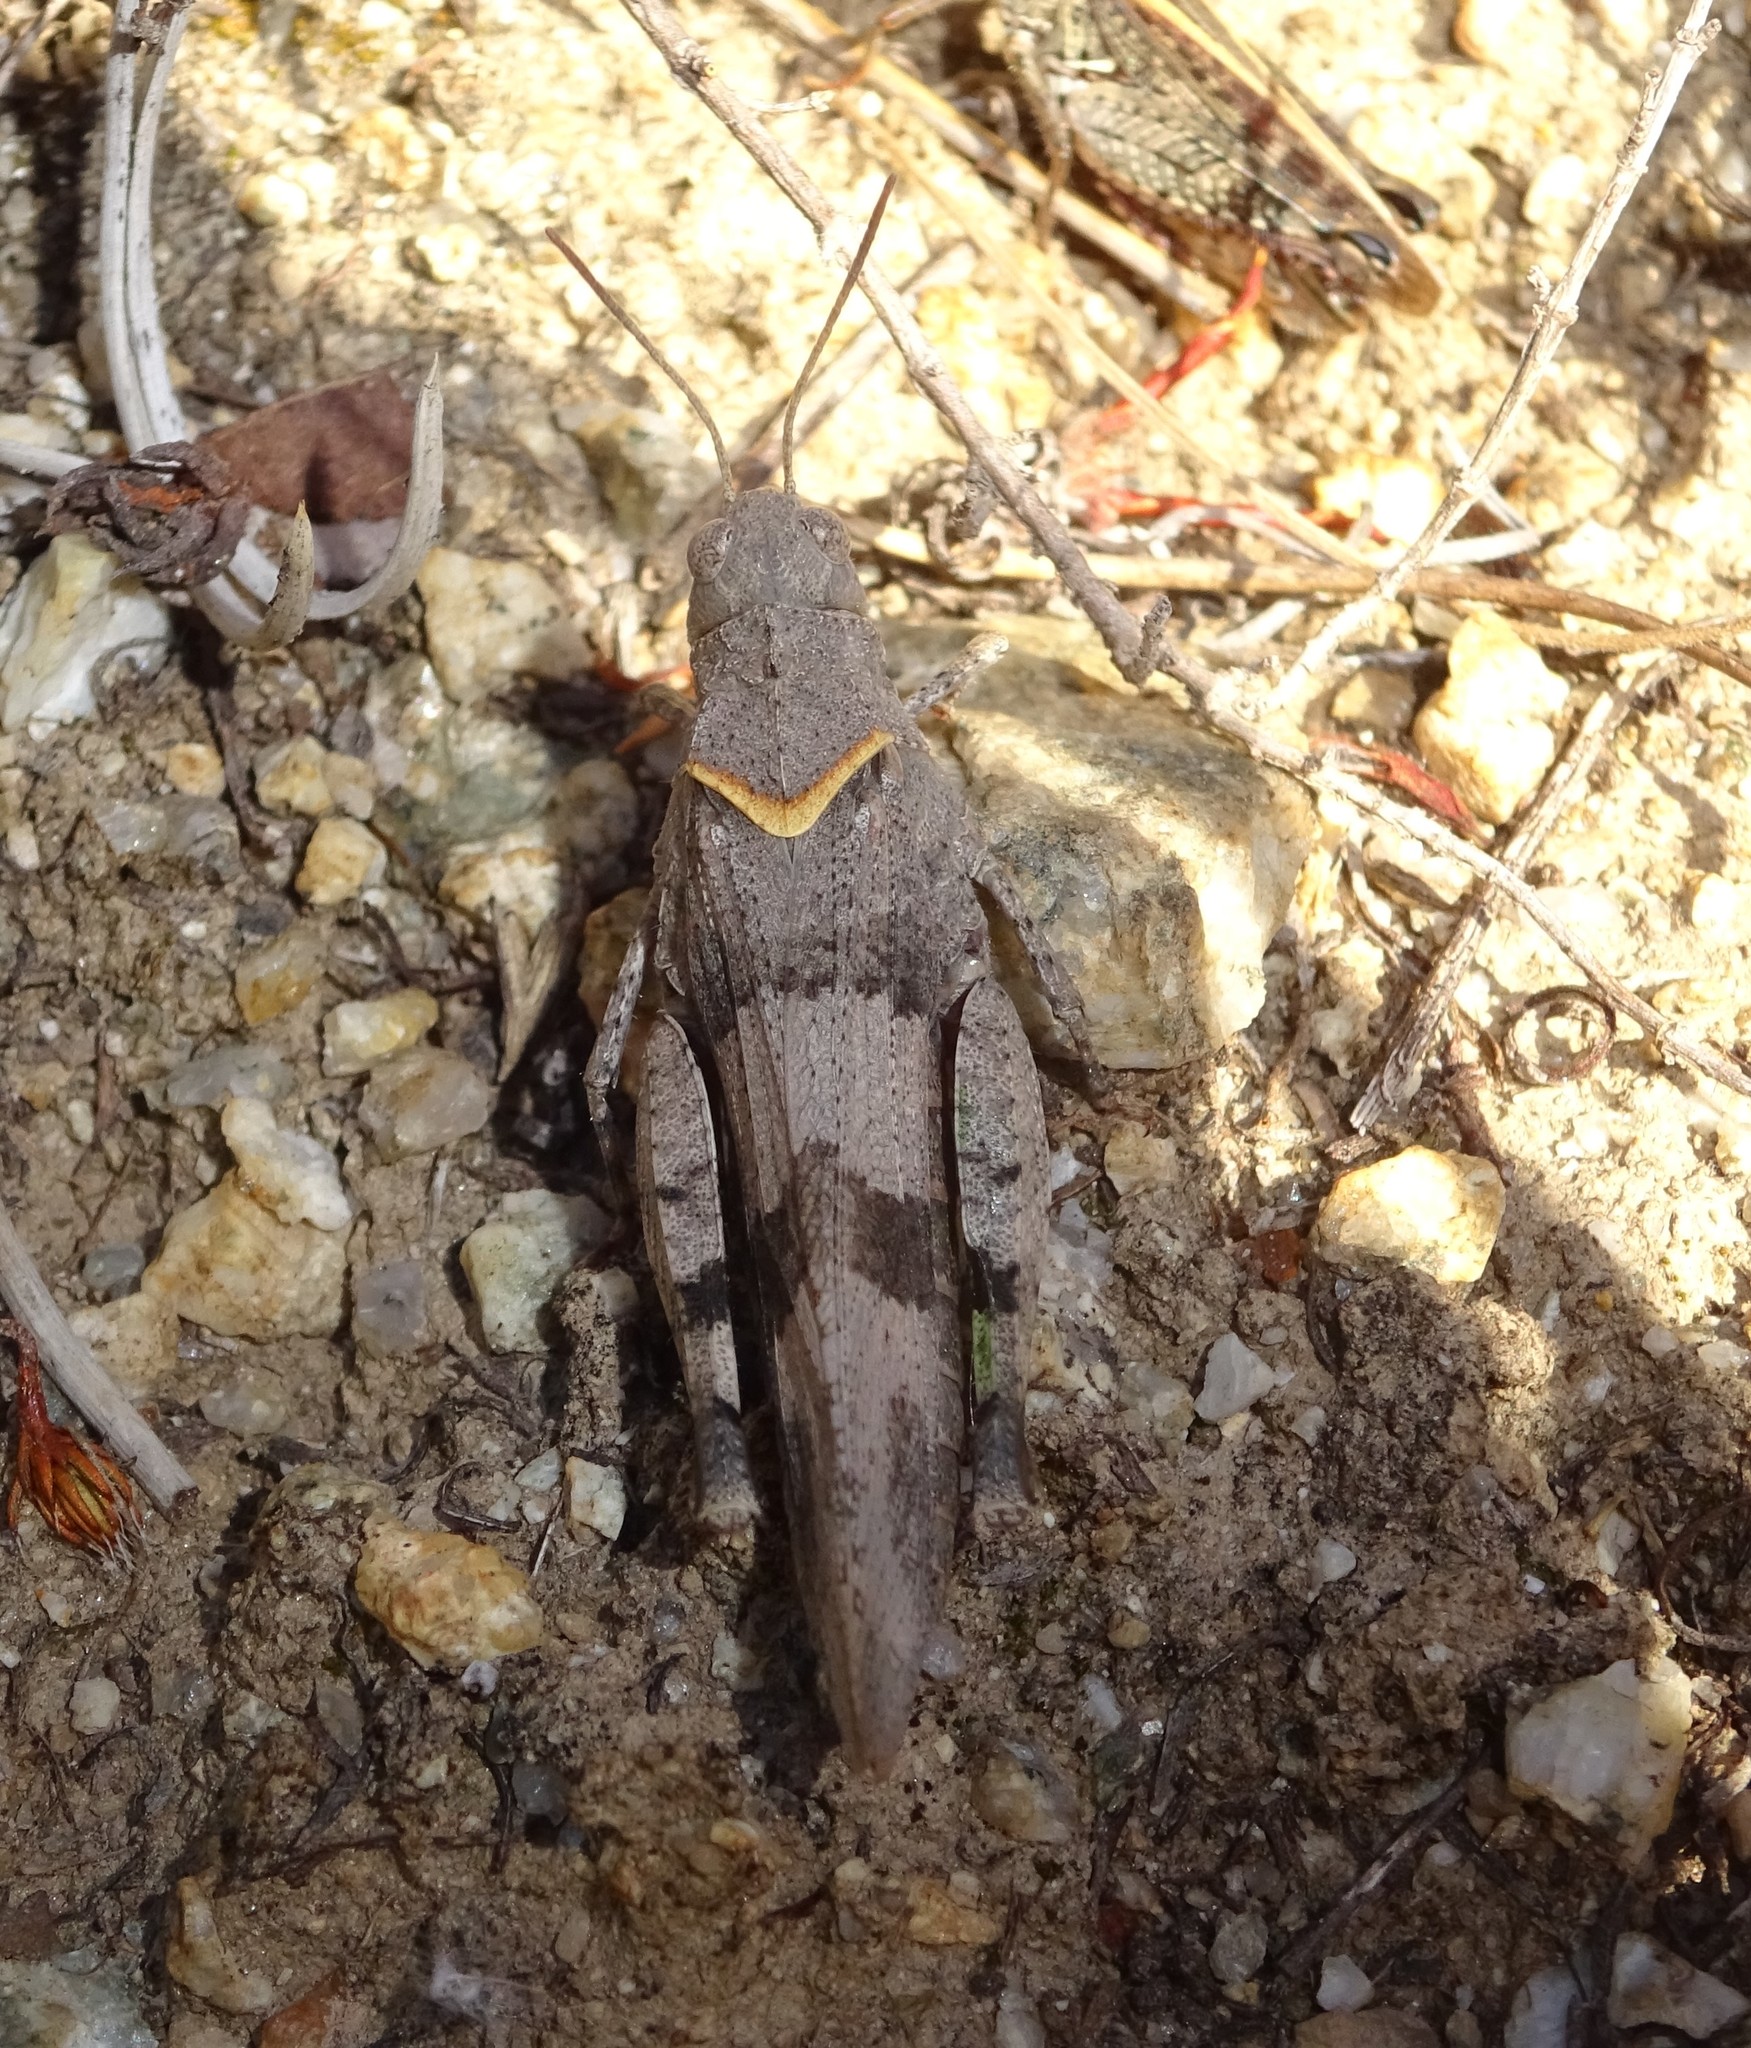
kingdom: Animalia
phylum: Arthropoda
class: Insecta
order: Orthoptera
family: Acrididae
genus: Oedipoda
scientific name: Oedipoda caerulescens
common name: Blue-winged grasshopper
